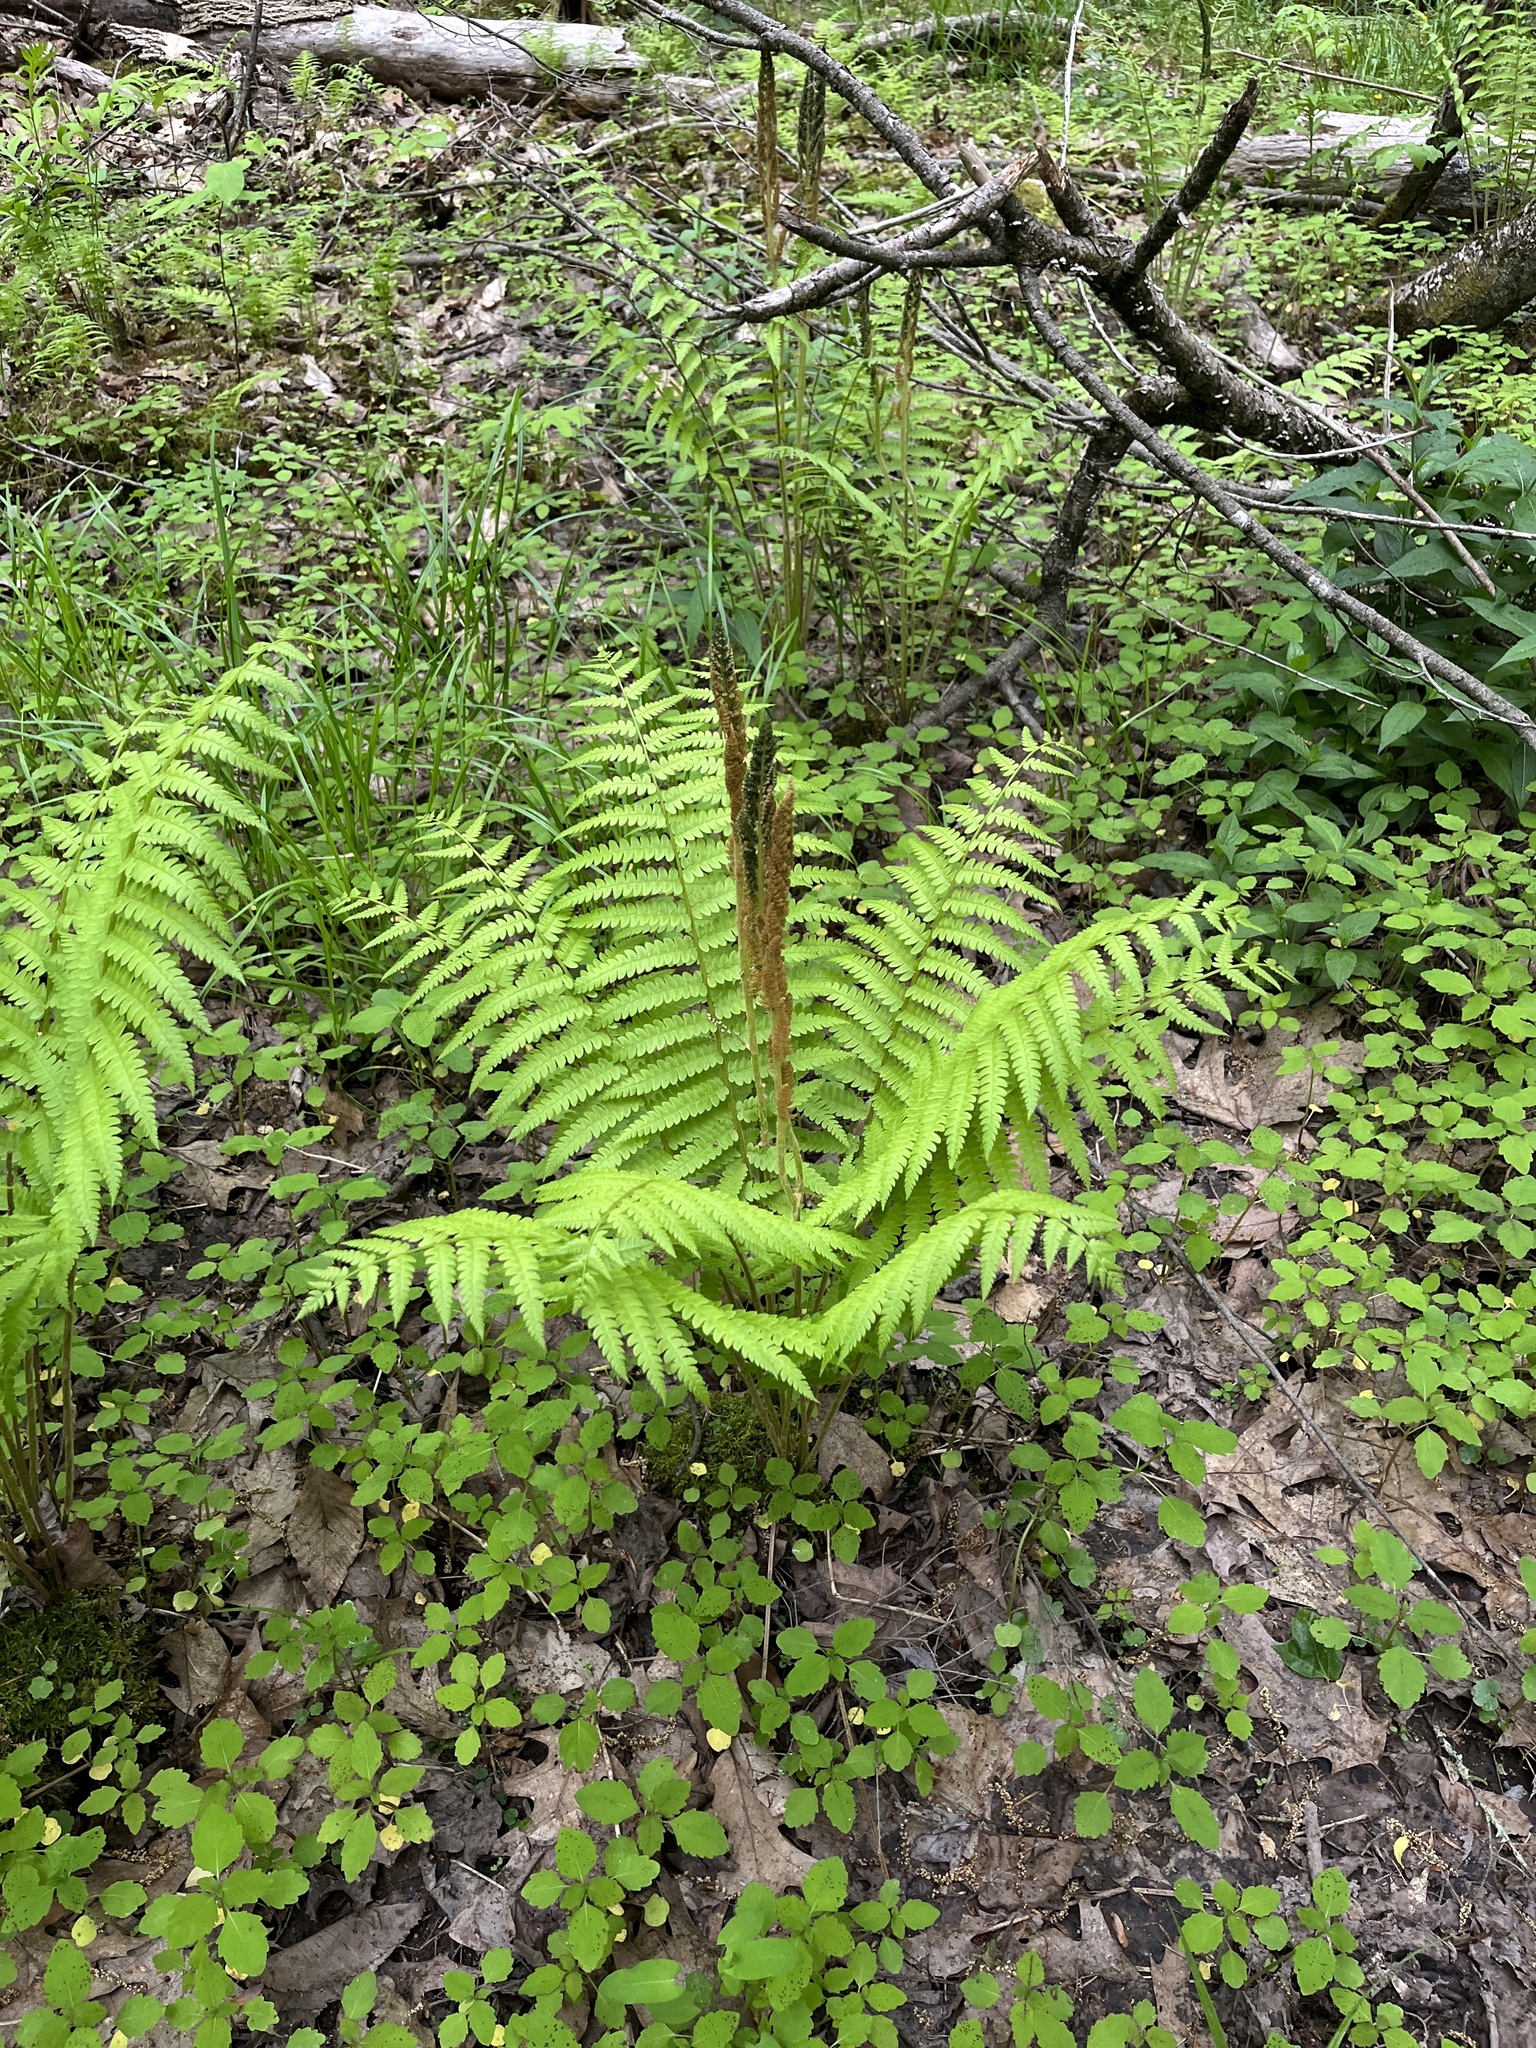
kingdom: Plantae
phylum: Tracheophyta
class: Polypodiopsida
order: Osmundales
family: Osmundaceae
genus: Osmundastrum
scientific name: Osmundastrum cinnamomeum
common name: Cinnamon fern
